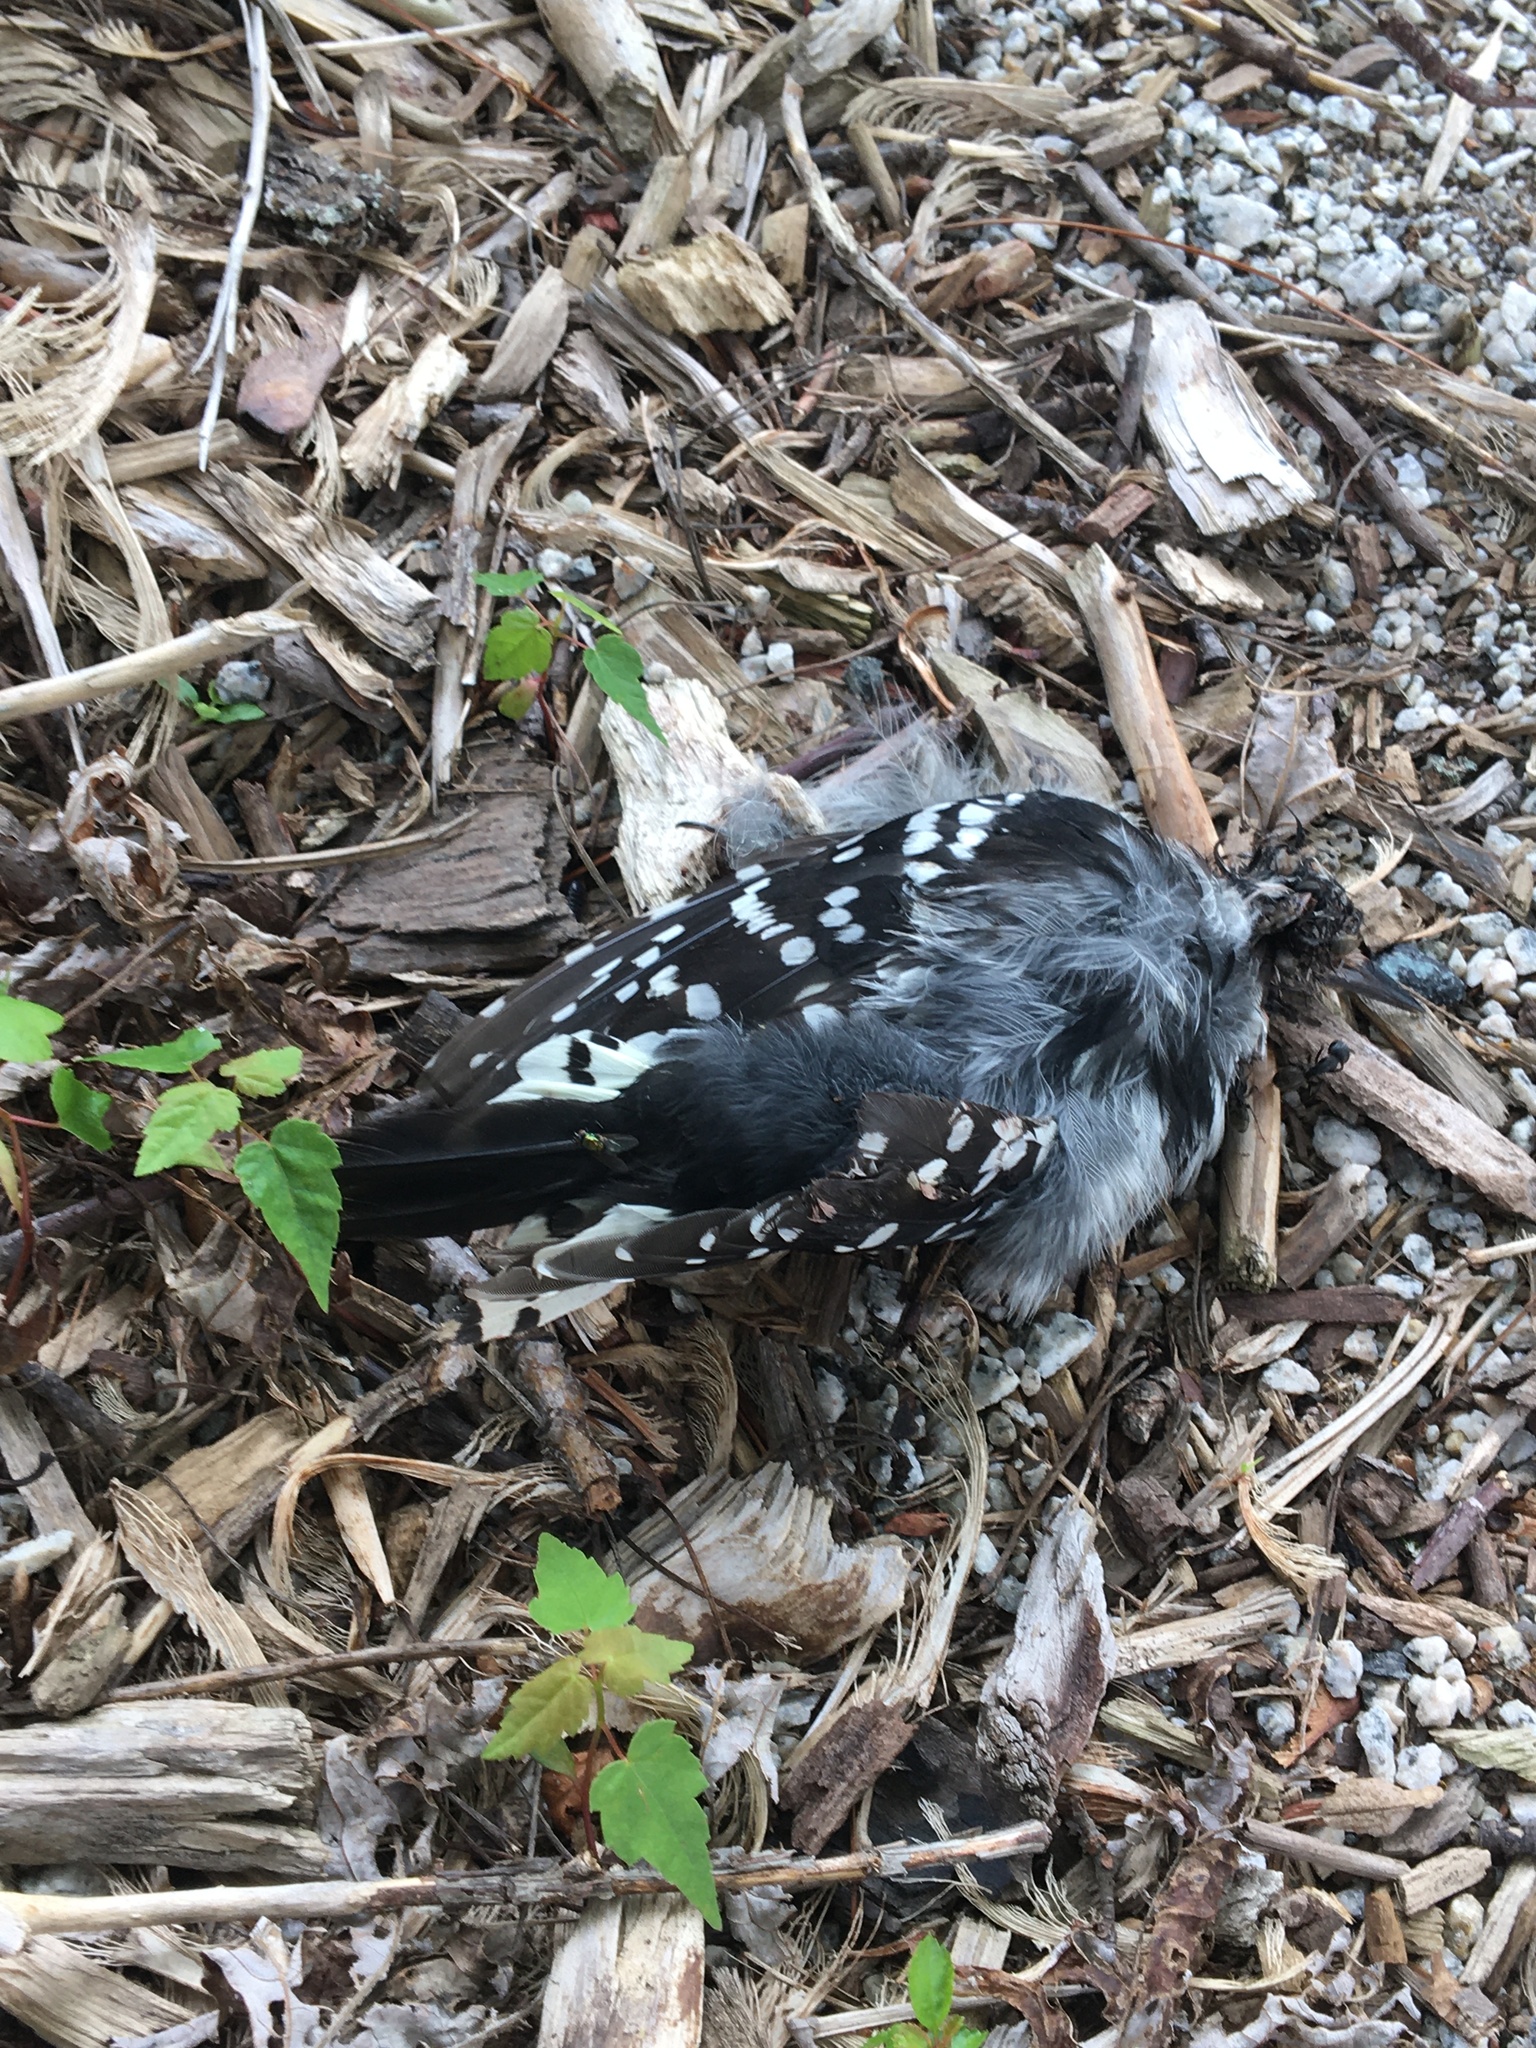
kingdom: Animalia
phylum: Chordata
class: Aves
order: Piciformes
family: Picidae
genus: Dryobates
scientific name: Dryobates pubescens
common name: Downy woodpecker
